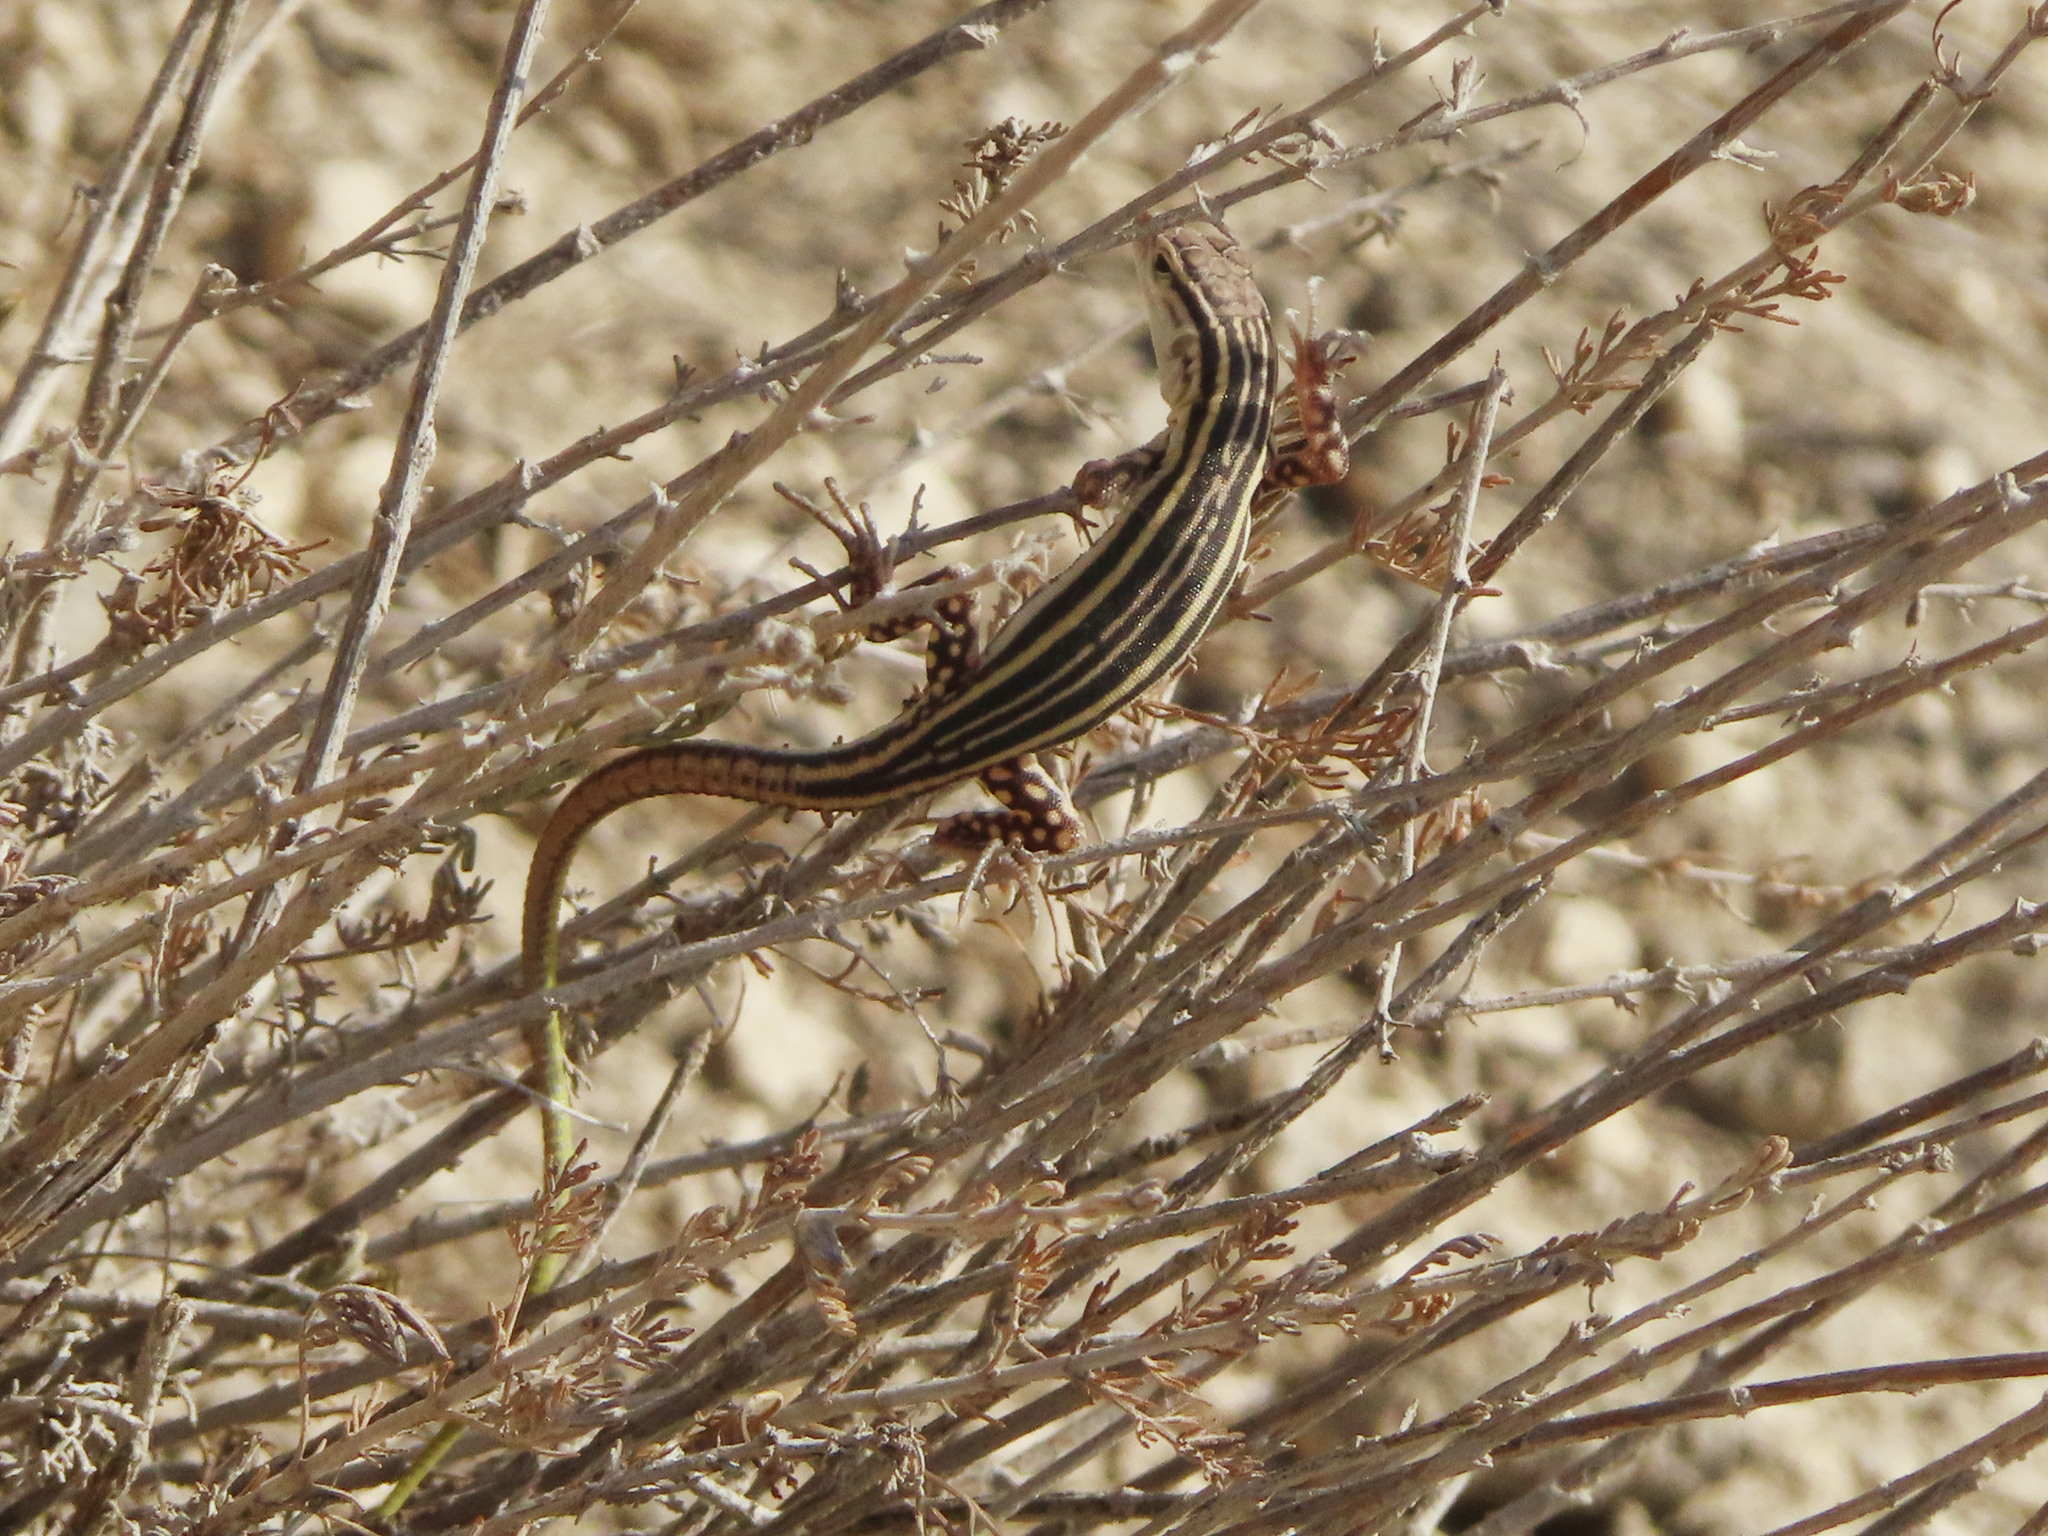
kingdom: Animalia
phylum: Chordata
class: Squamata
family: Lacertidae
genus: Eremias
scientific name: Eremias pleskei
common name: Pleske's racerunner
